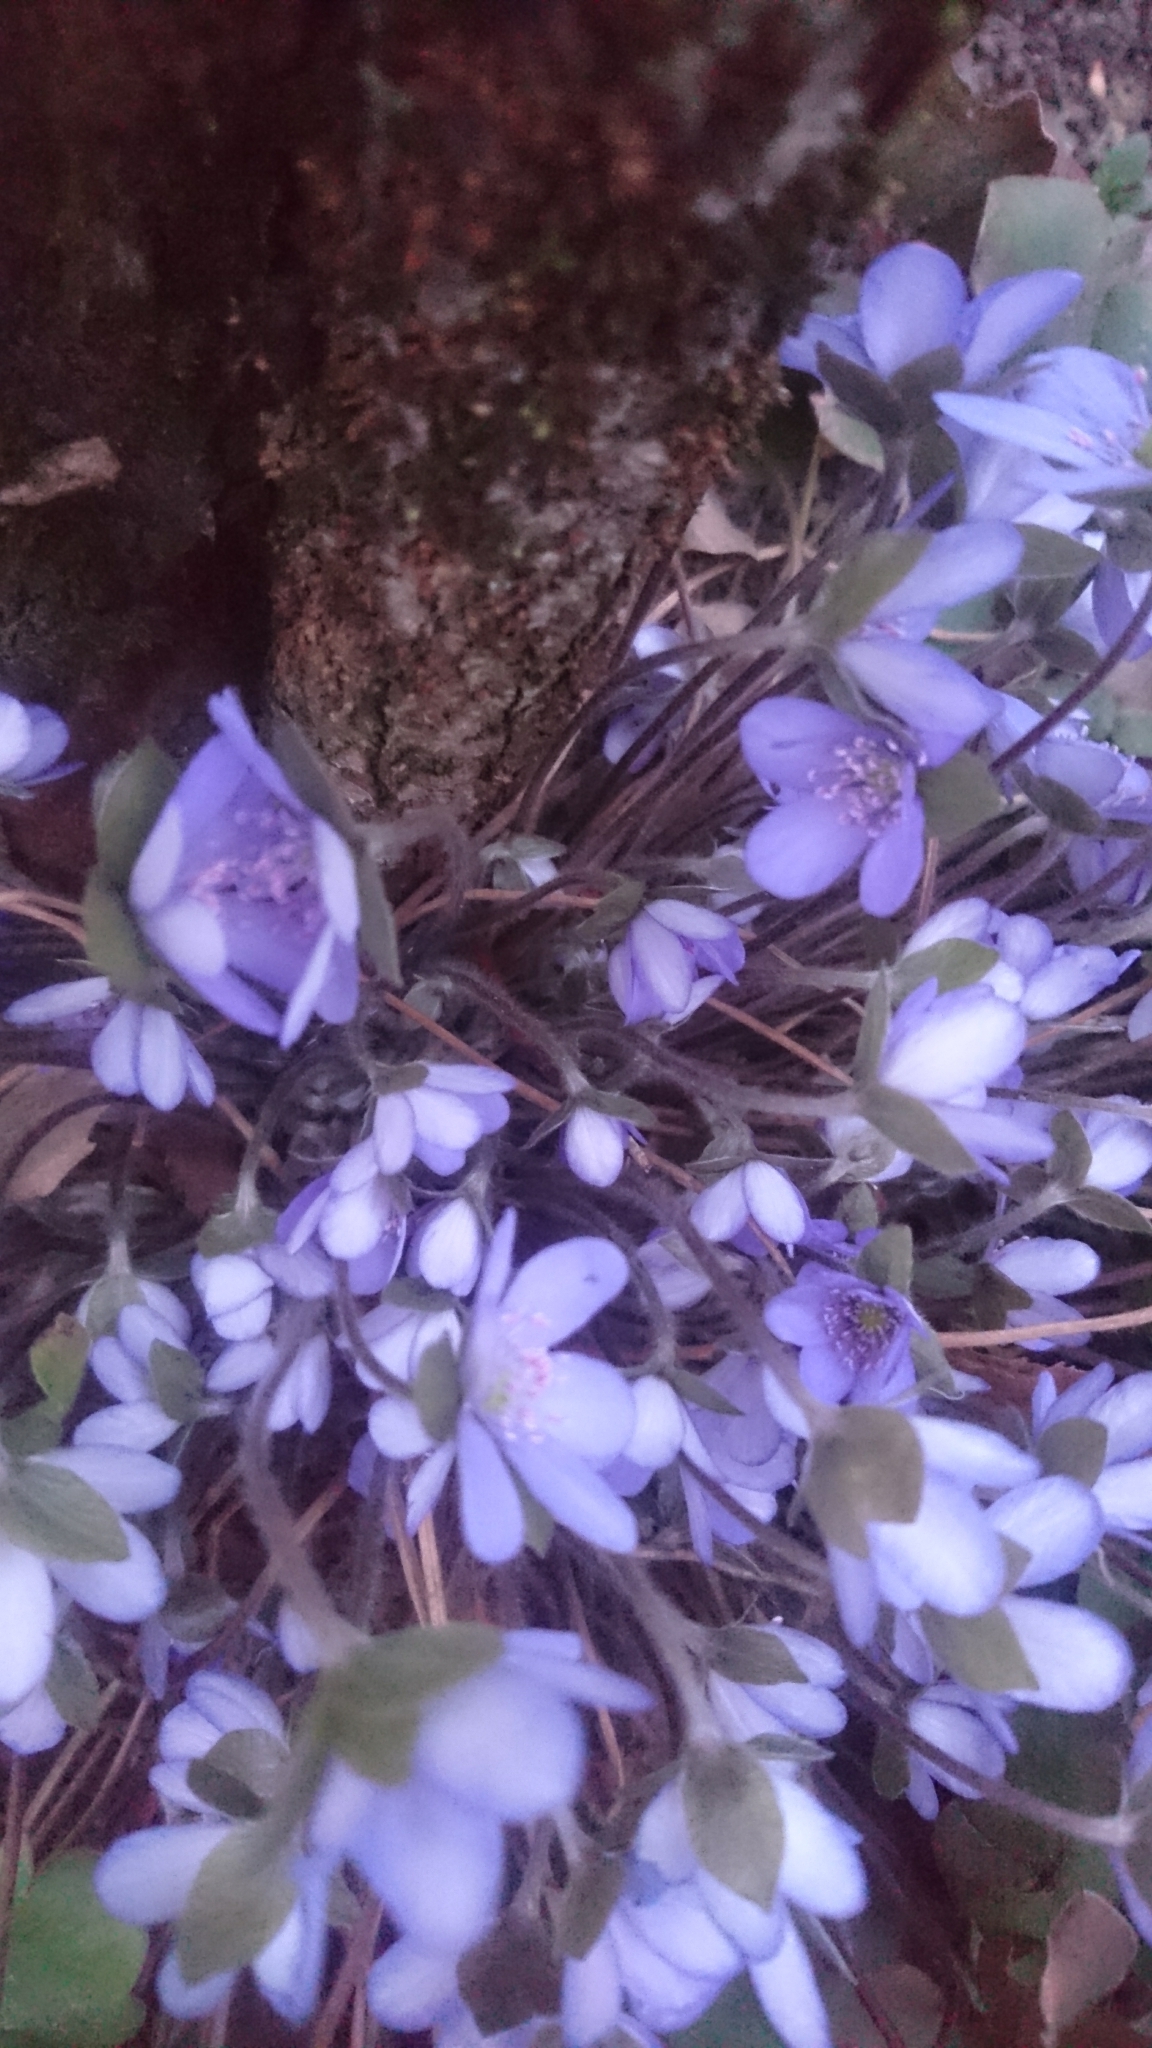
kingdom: Plantae
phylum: Tracheophyta
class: Magnoliopsida
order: Ranunculales
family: Ranunculaceae
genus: Hepatica
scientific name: Hepatica nobilis
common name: Liverleaf
